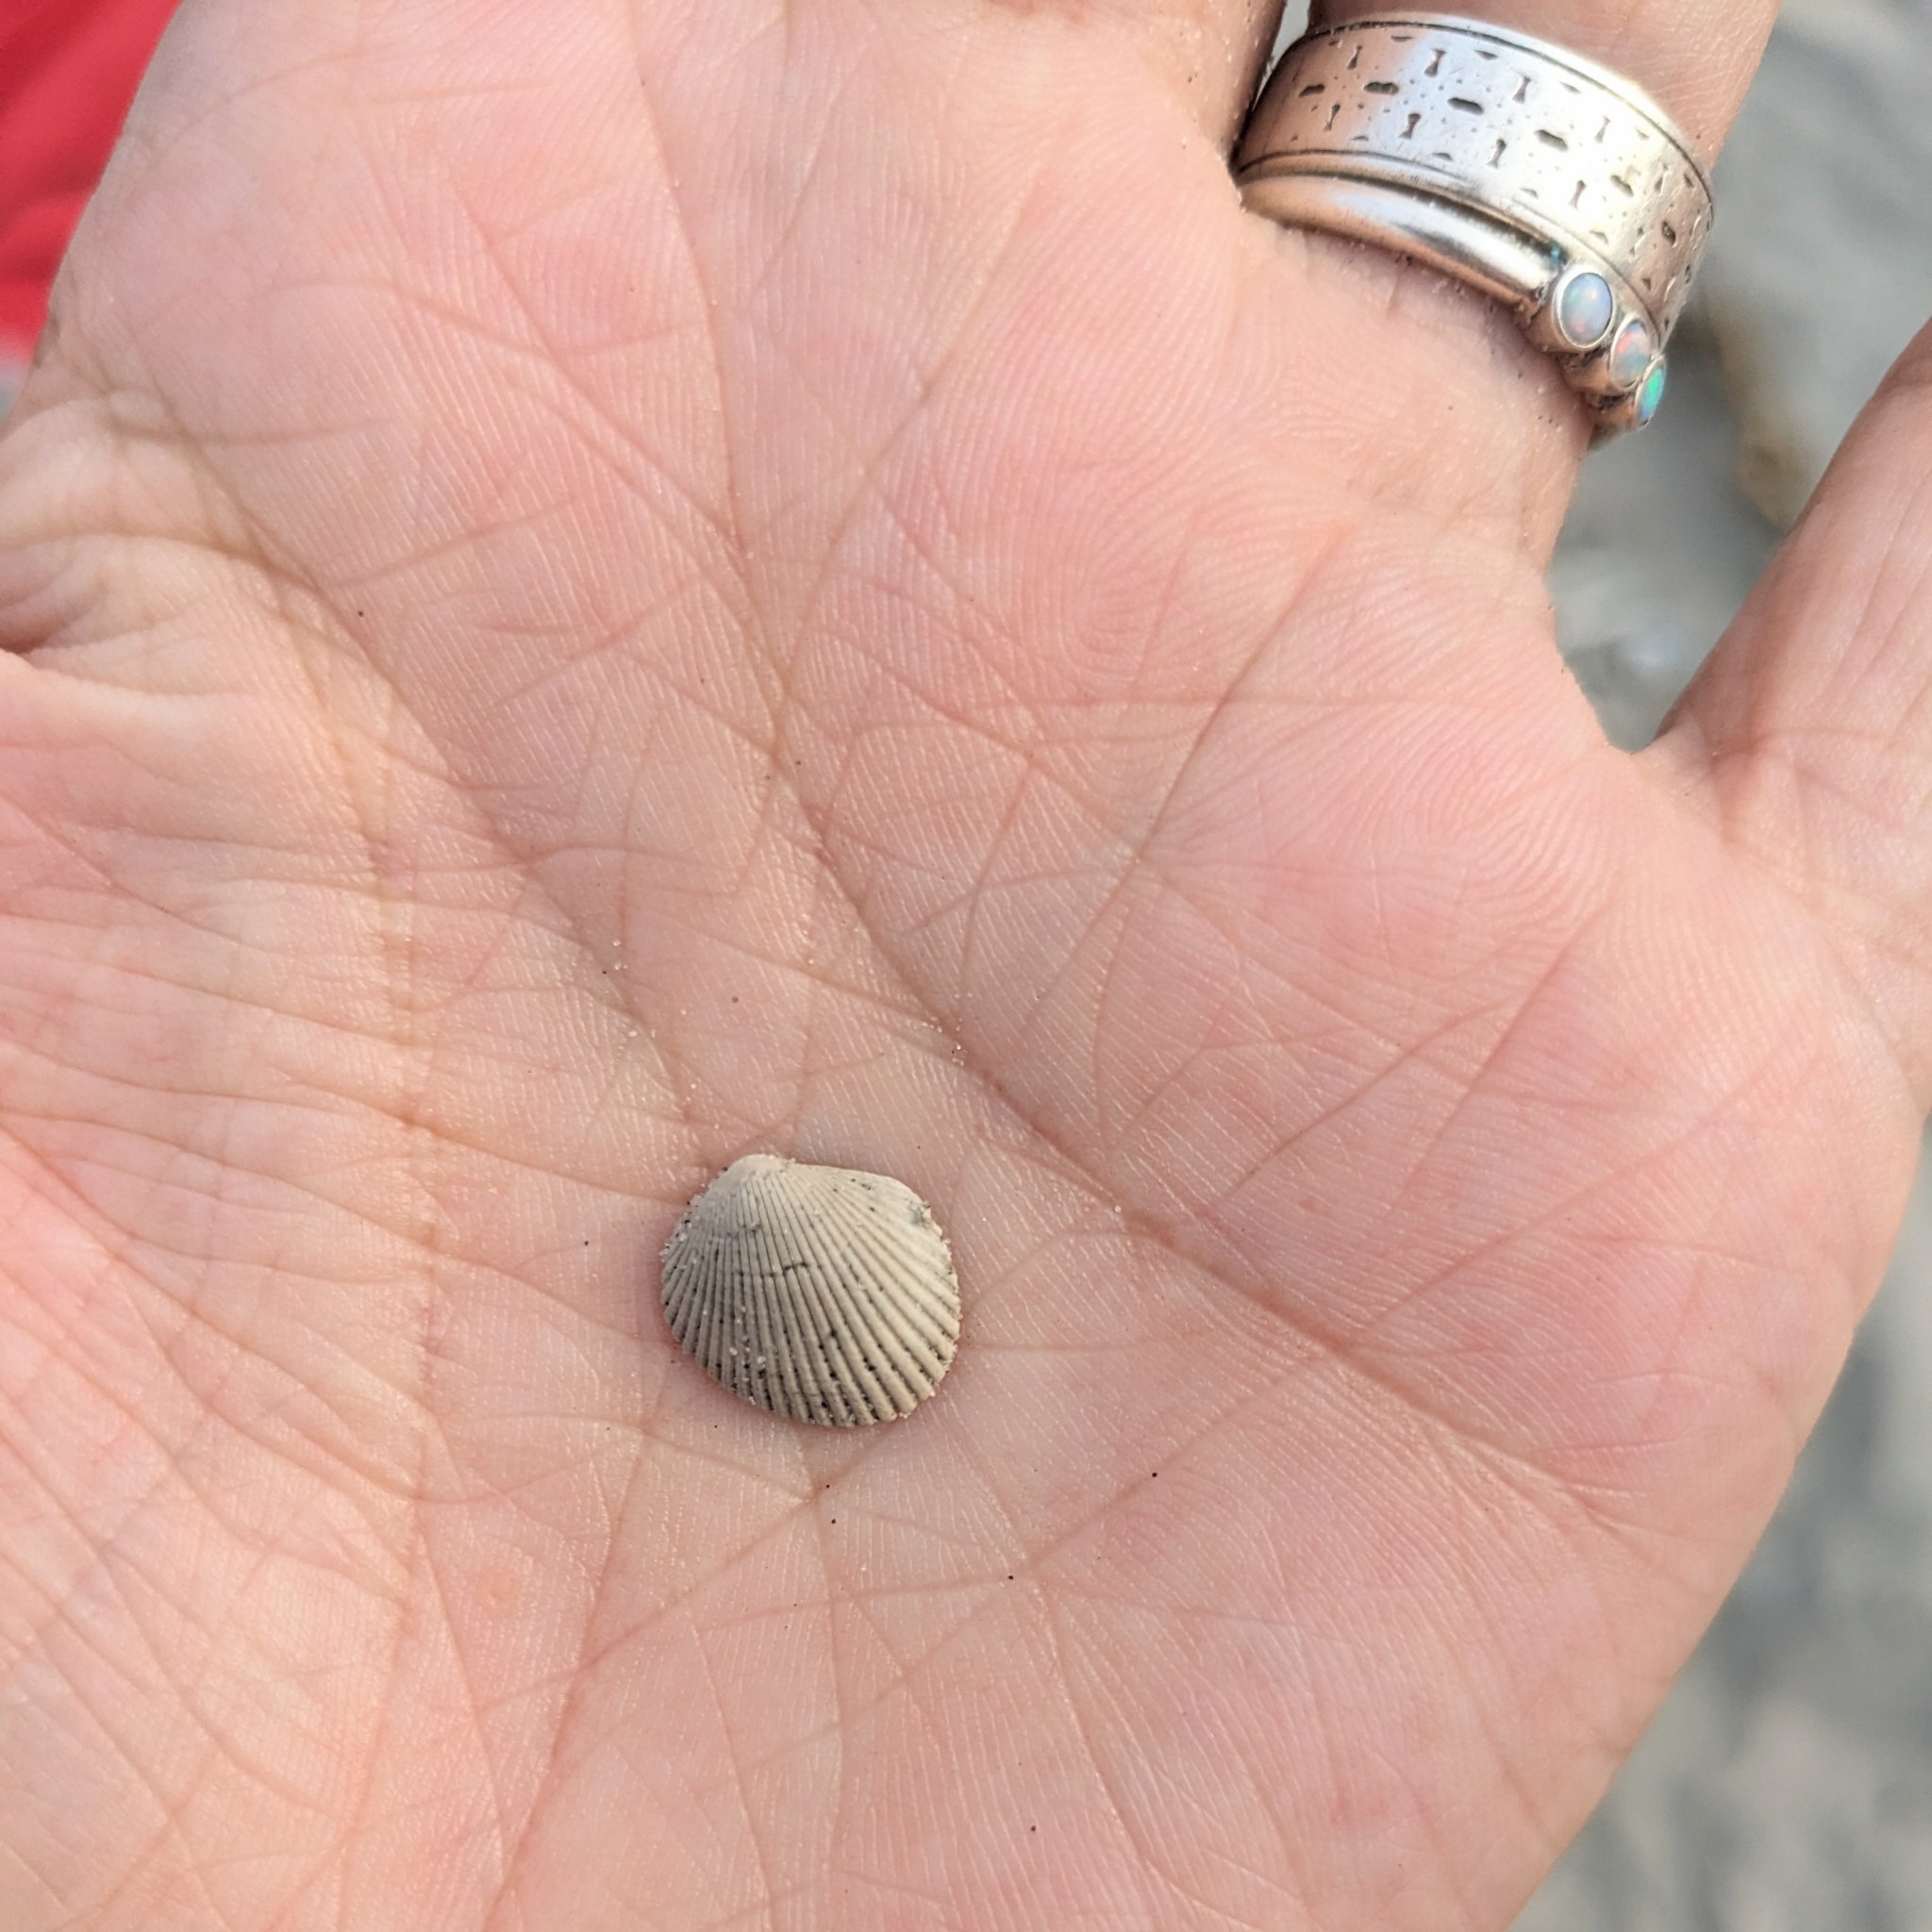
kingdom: Animalia
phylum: Mollusca
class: Bivalvia
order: Arcida
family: Arcidae
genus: Lunarca
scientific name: Lunarca ovalis
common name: Blood ark
